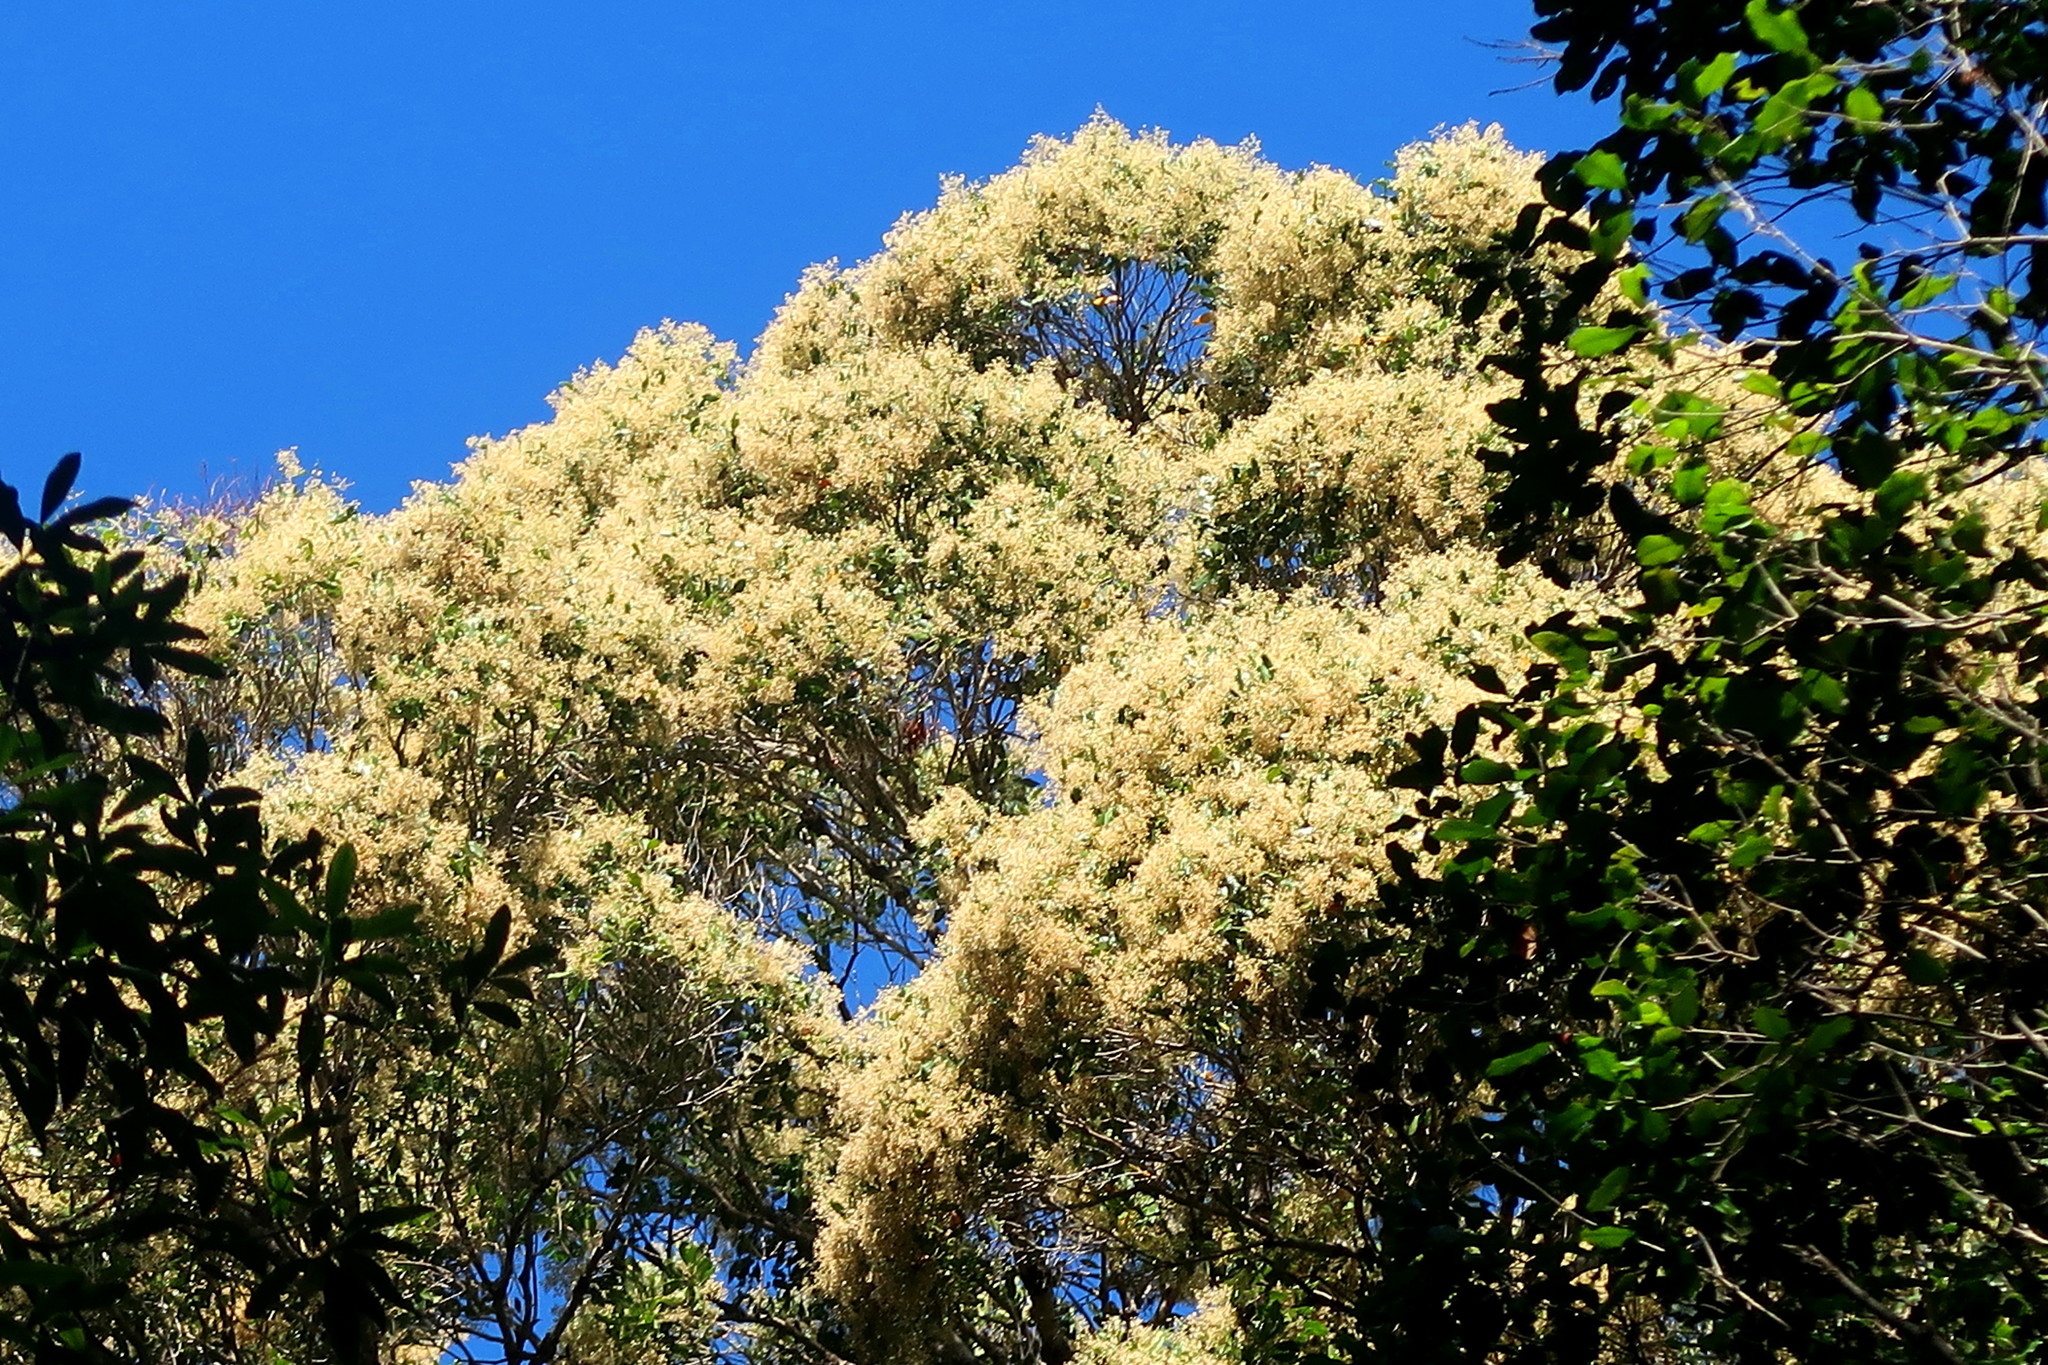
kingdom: Plantae
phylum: Tracheophyta
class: Magnoliopsida
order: Lamiales
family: Oleaceae
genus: Olea
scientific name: Olea capensis
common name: Black ironwood
